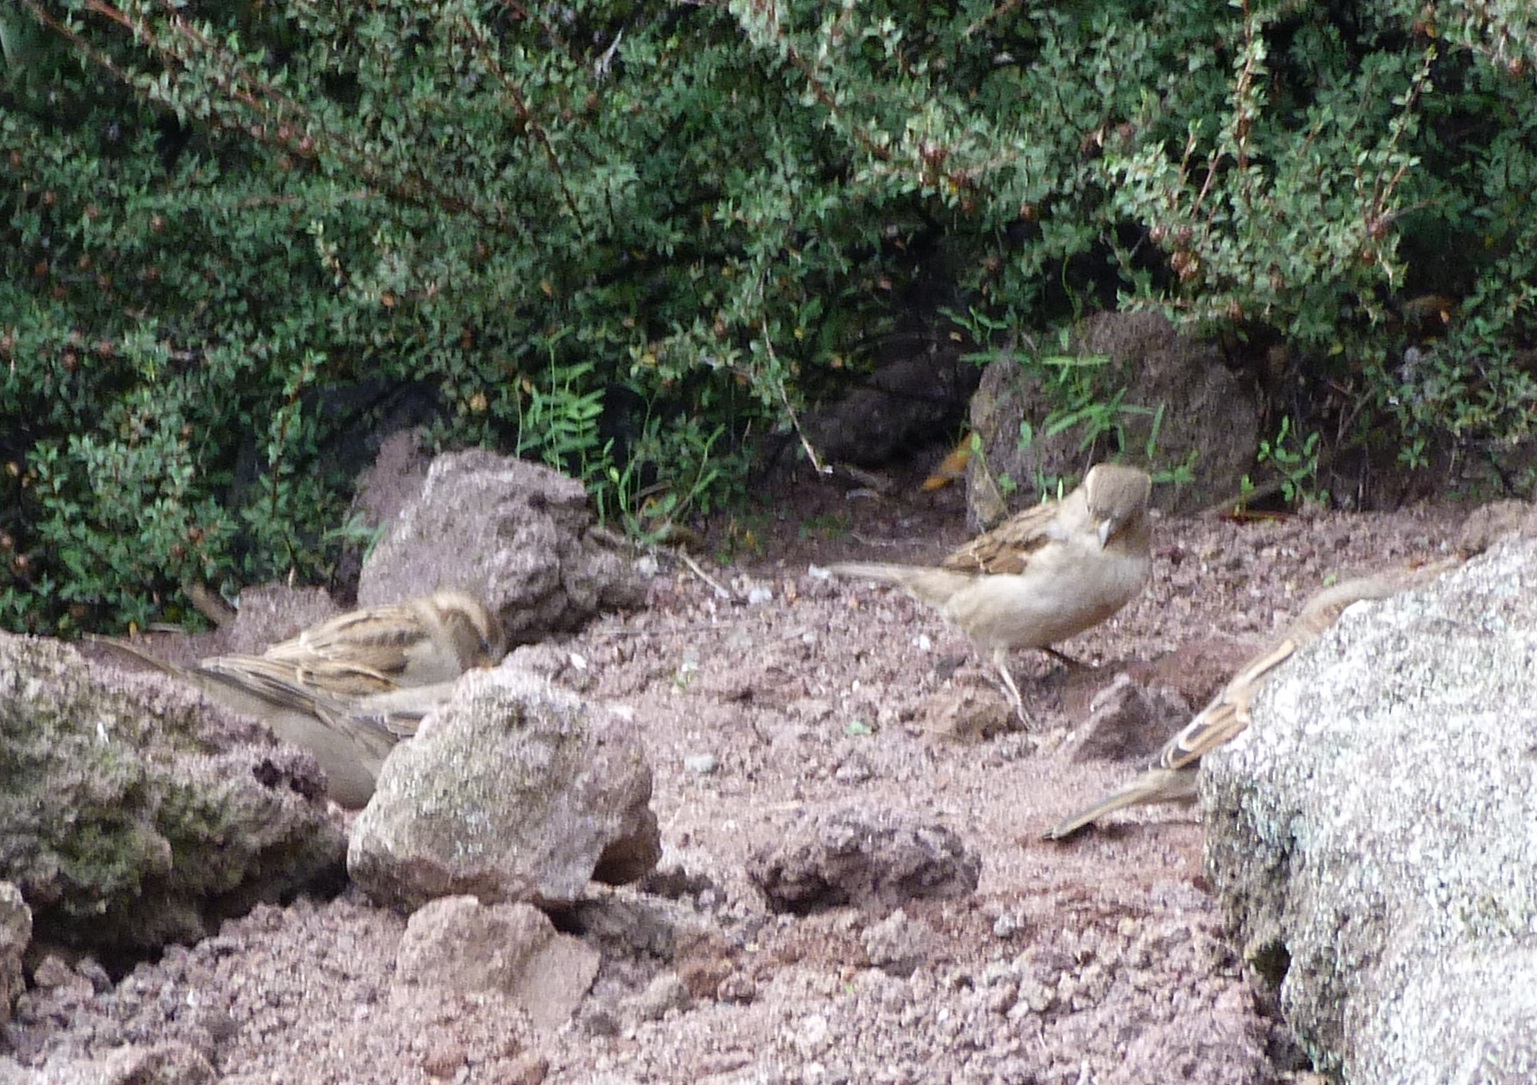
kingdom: Animalia
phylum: Chordata
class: Aves
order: Passeriformes
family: Passeridae
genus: Passer
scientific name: Passer domesticus
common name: House sparrow
